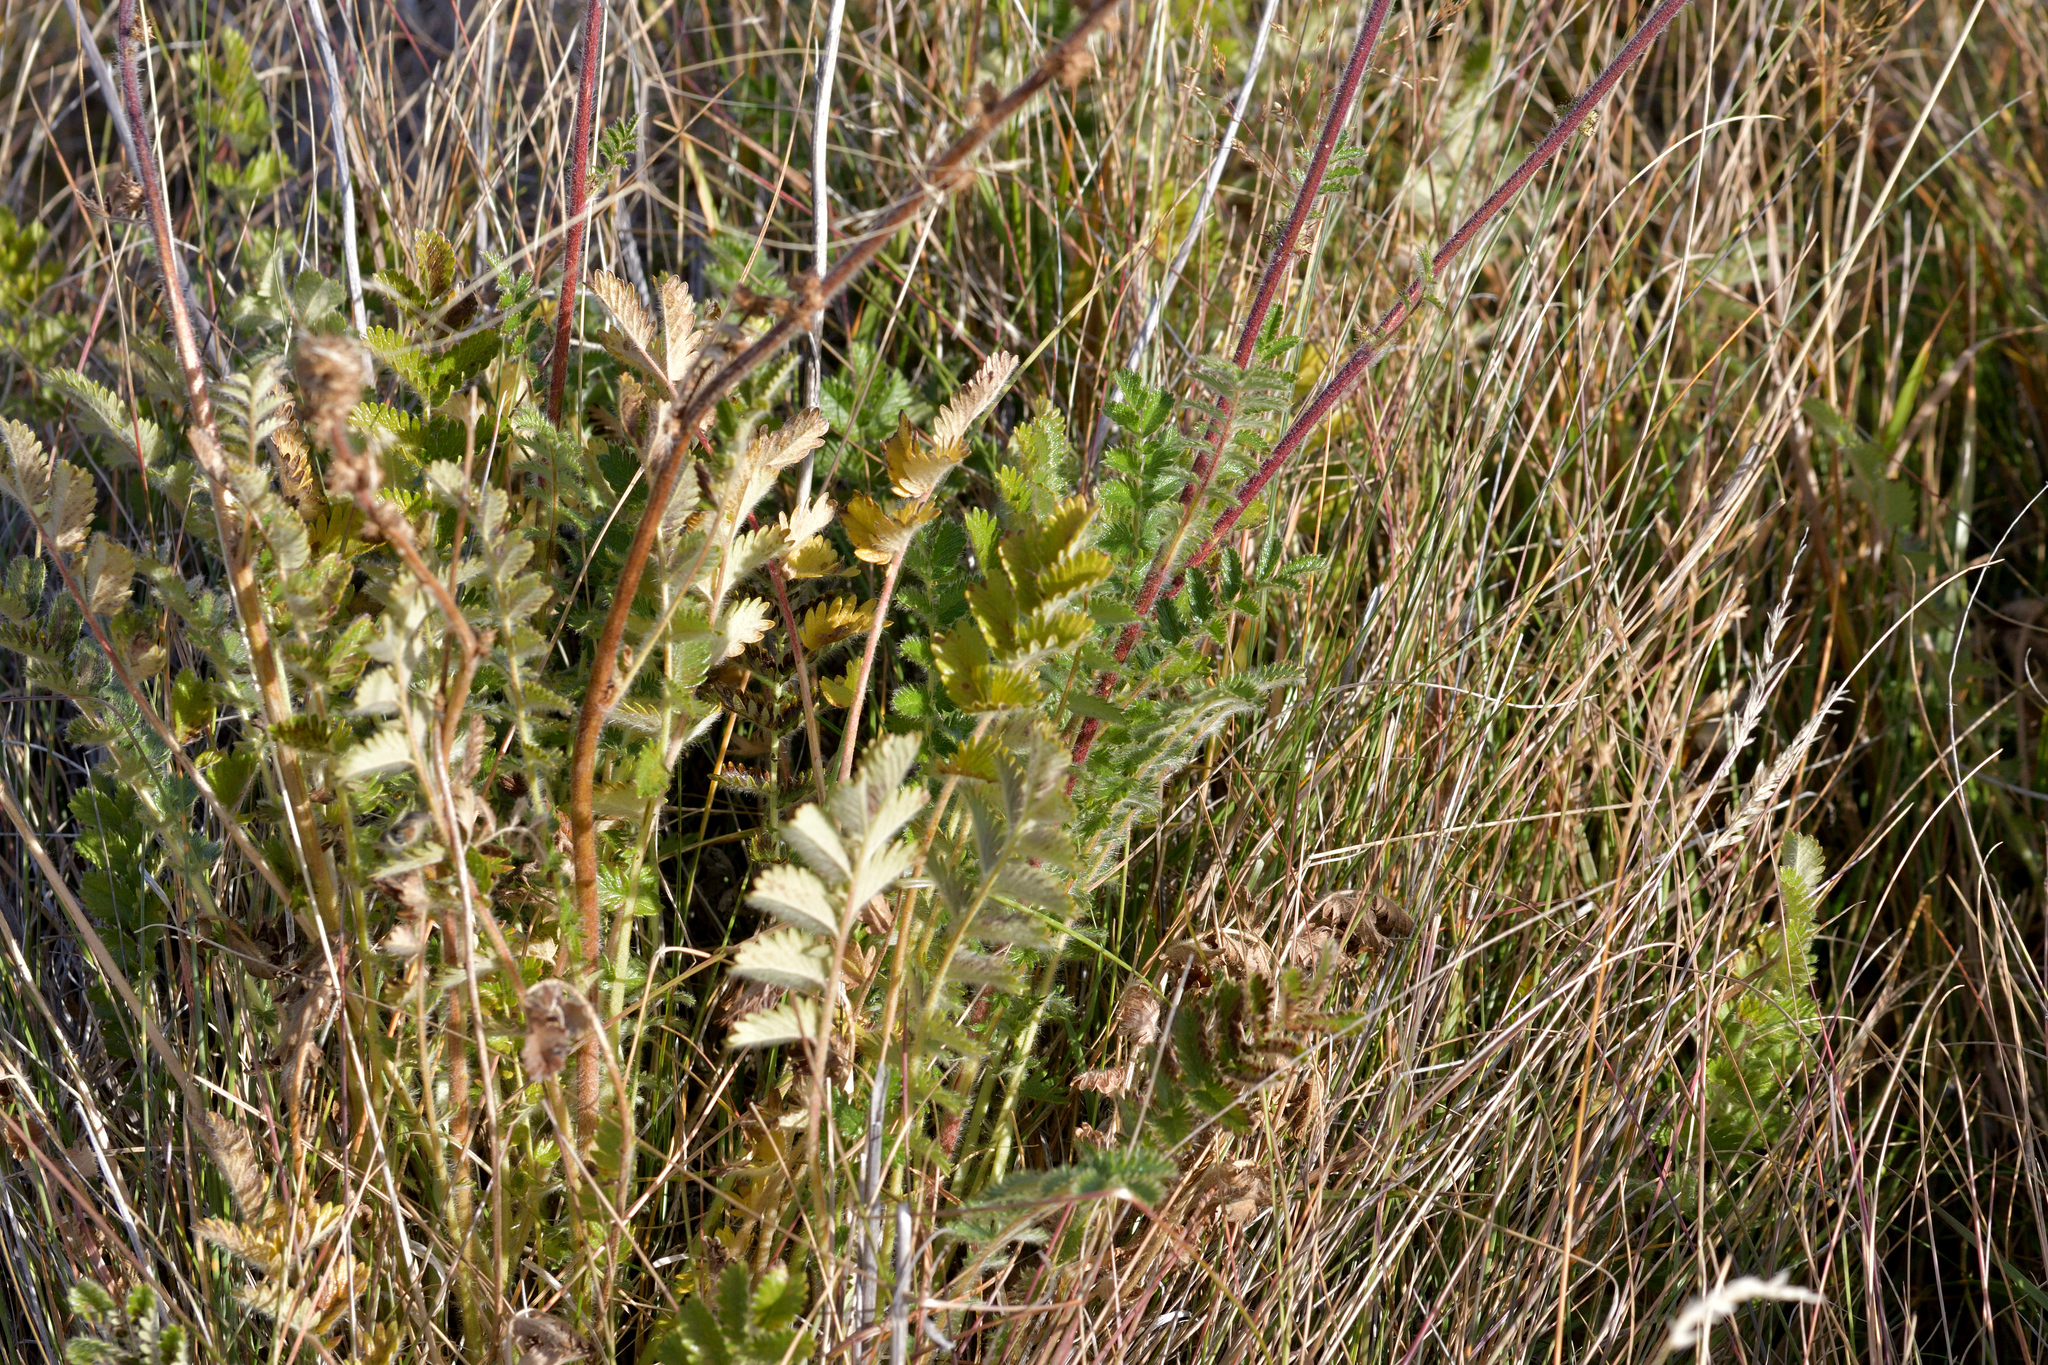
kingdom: Plantae
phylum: Tracheophyta
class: Magnoliopsida
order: Rosales
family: Rosaceae
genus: Acaena
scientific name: Acaena agnipila
